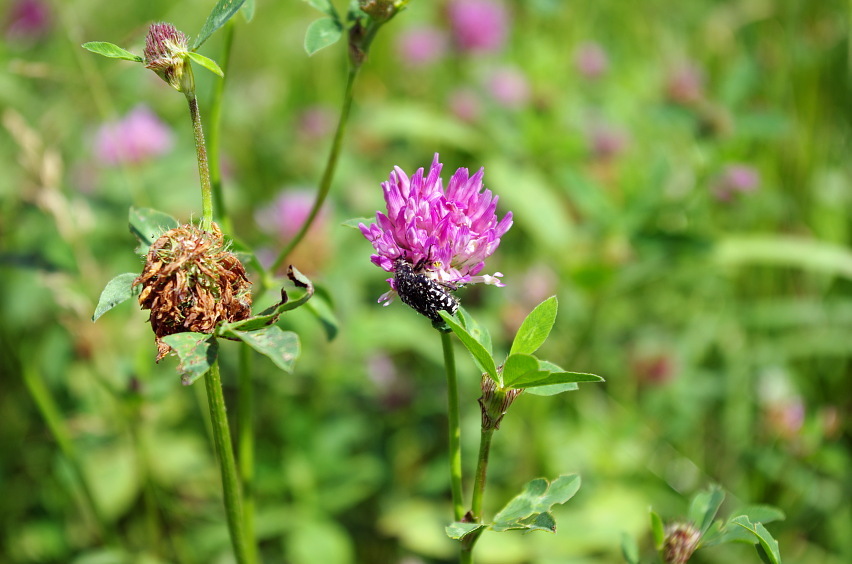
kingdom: Plantae
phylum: Tracheophyta
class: Magnoliopsida
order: Fabales
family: Fabaceae
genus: Trifolium
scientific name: Trifolium pratense
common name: Red clover
